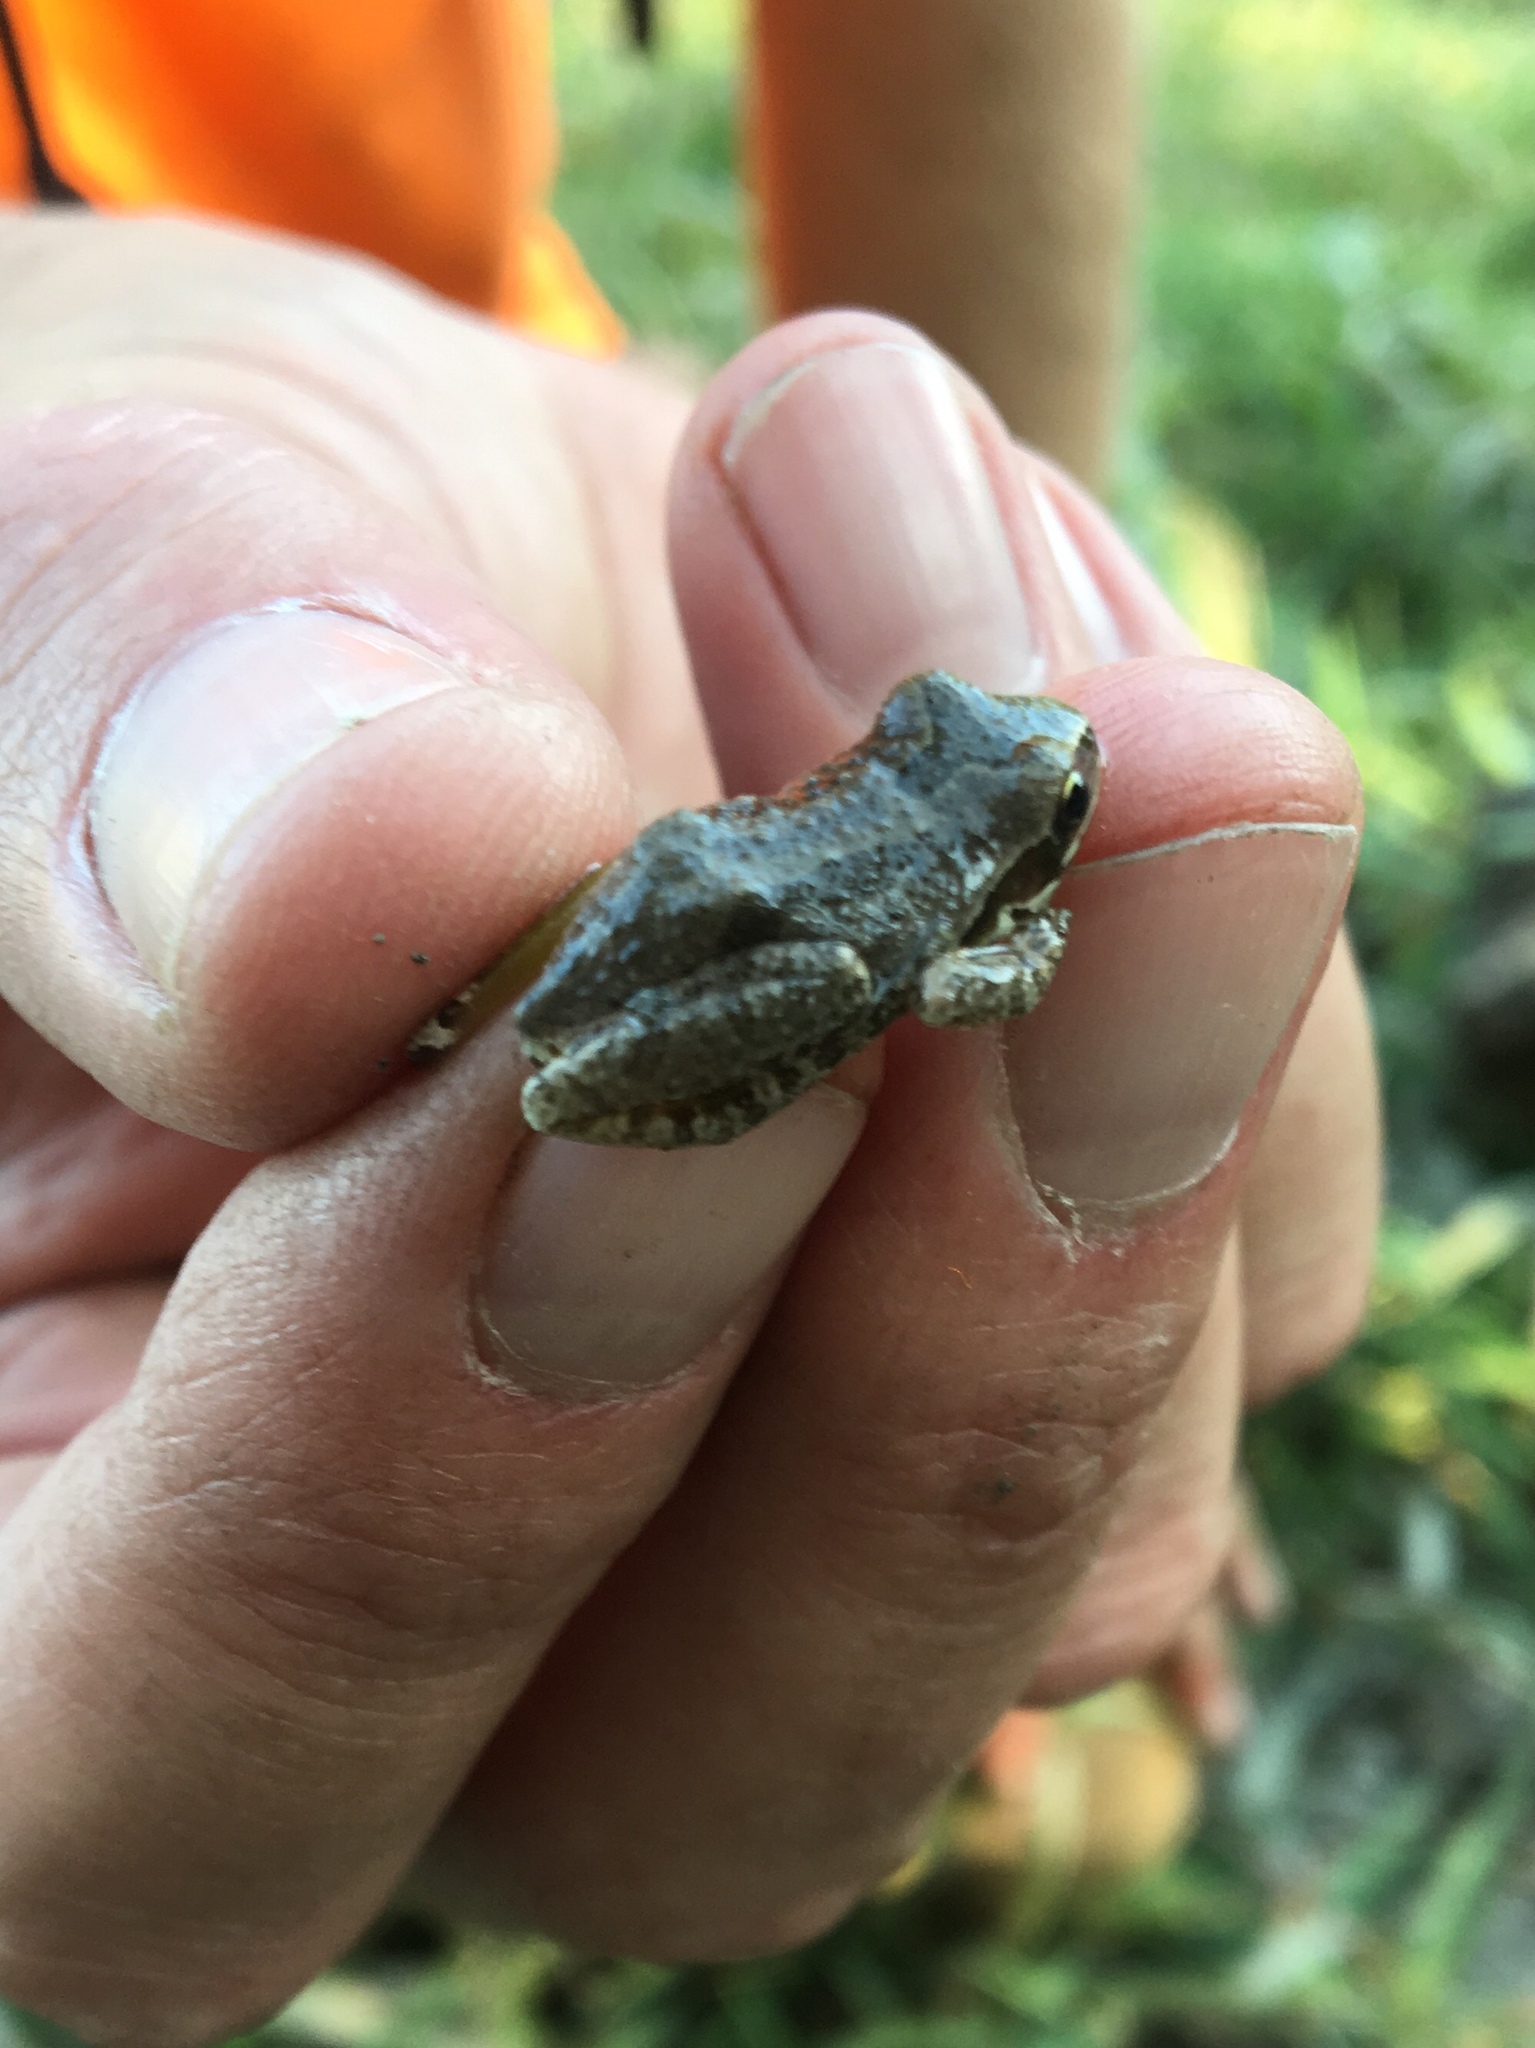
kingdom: Animalia
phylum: Chordata
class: Amphibia
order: Anura
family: Hylidae
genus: Pseudacris
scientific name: Pseudacris regilla
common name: Pacific chorus frog
